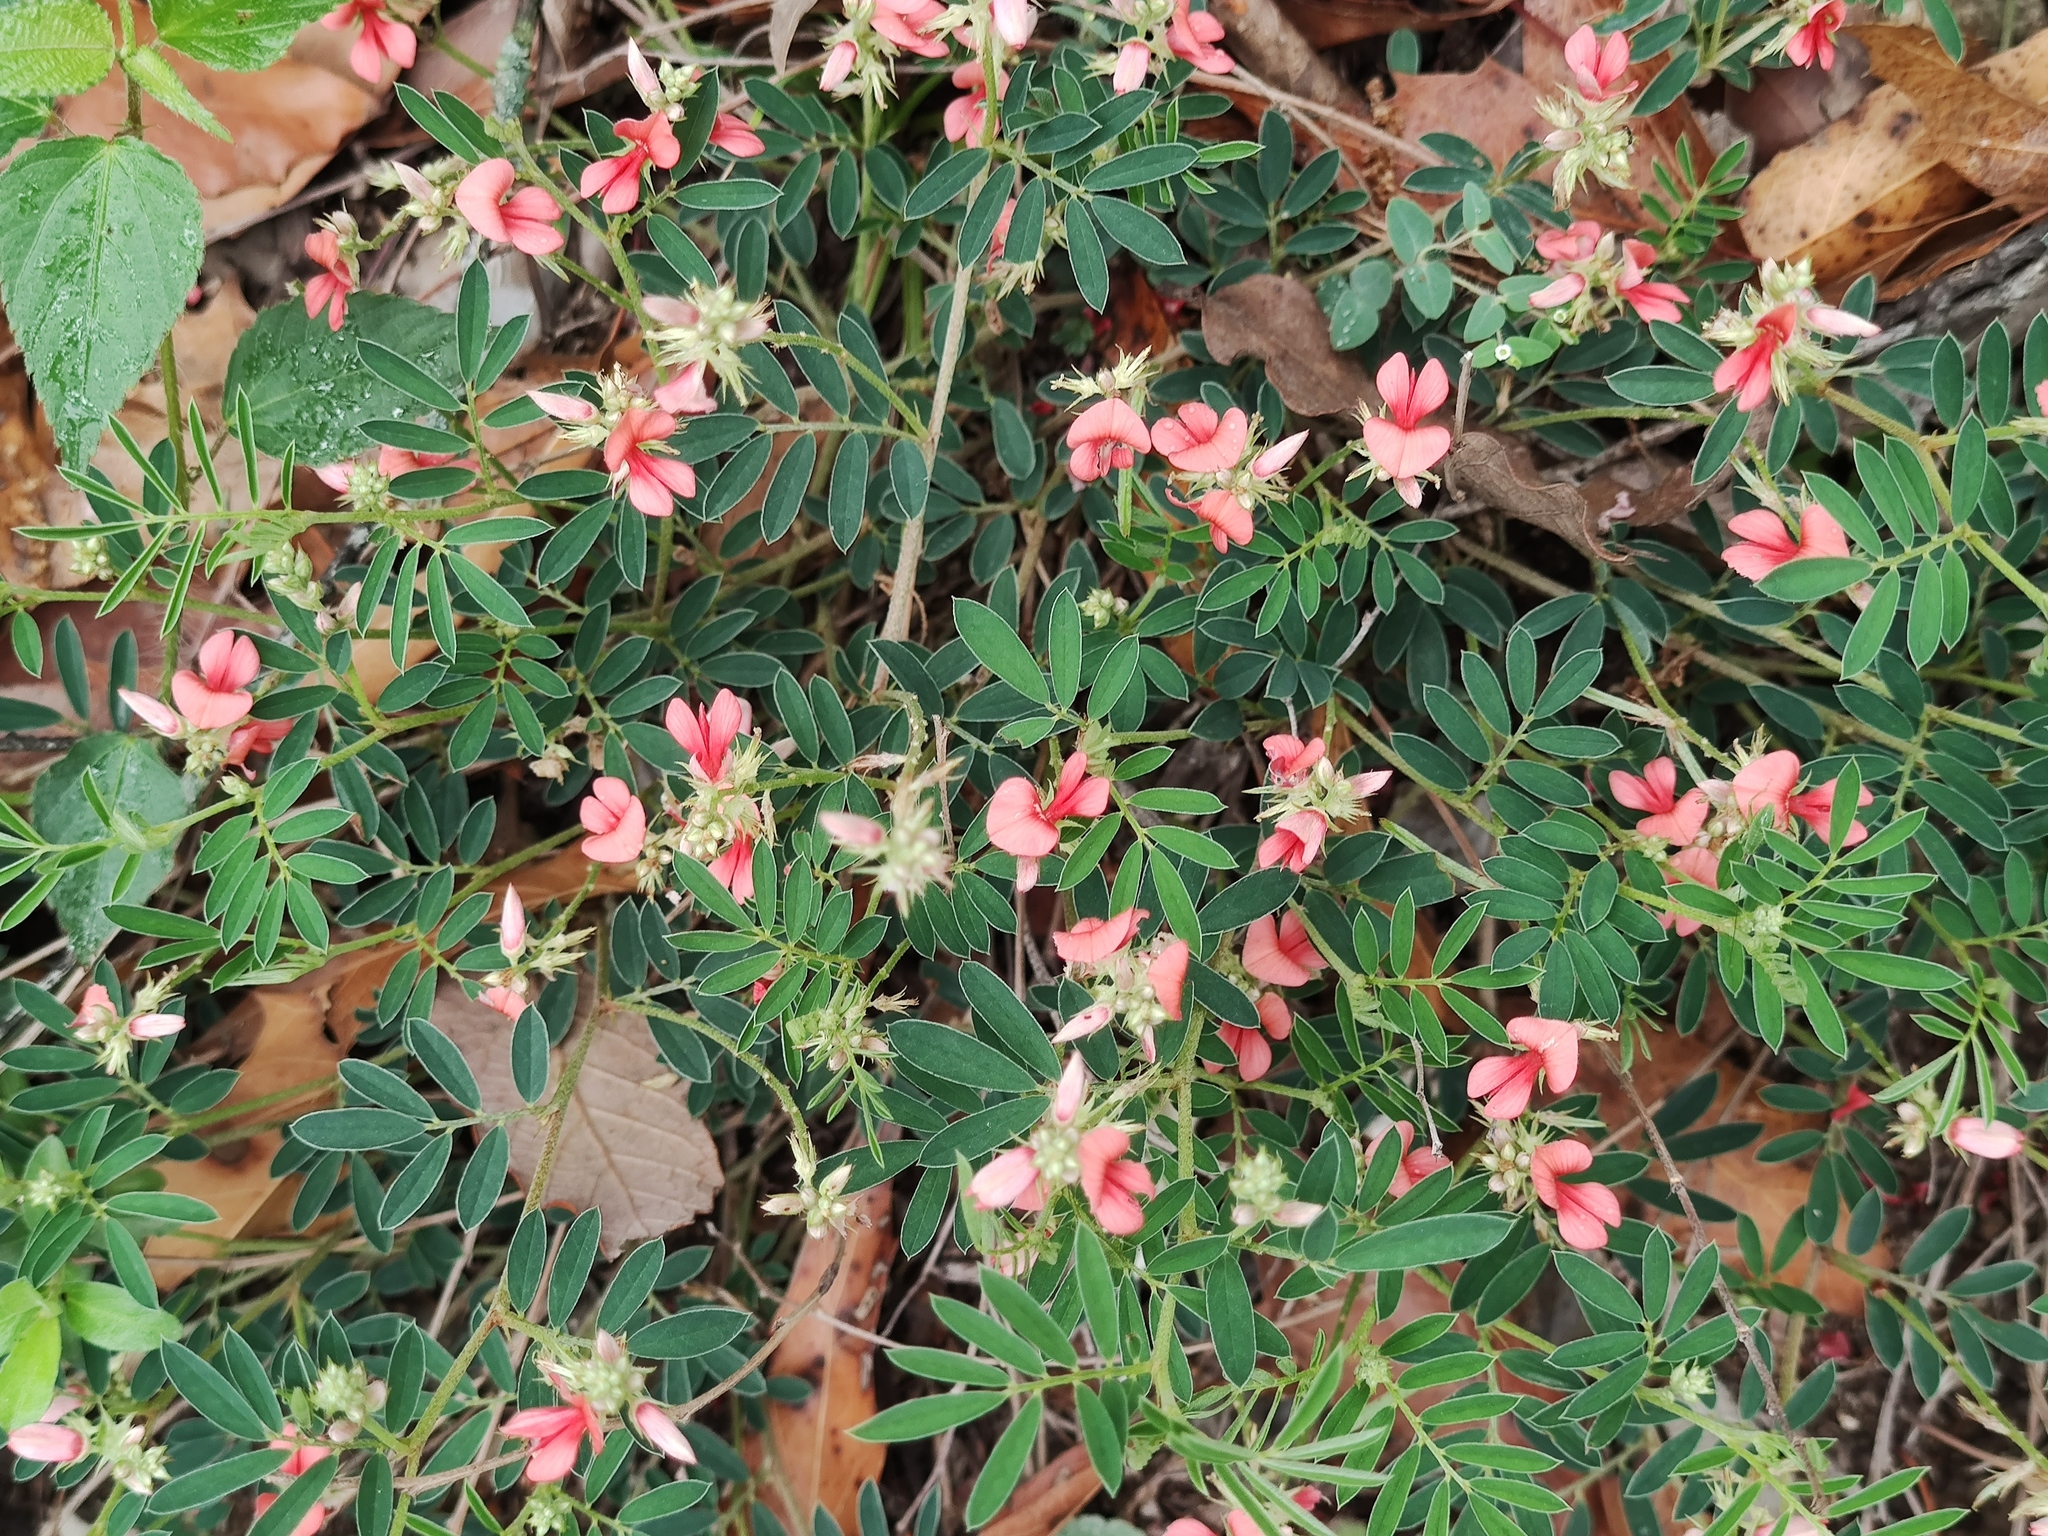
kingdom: Plantae
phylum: Tracheophyta
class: Magnoliopsida
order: Fabales
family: Fabaceae
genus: Indigofera
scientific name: Indigofera miniata
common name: Coast indigo
